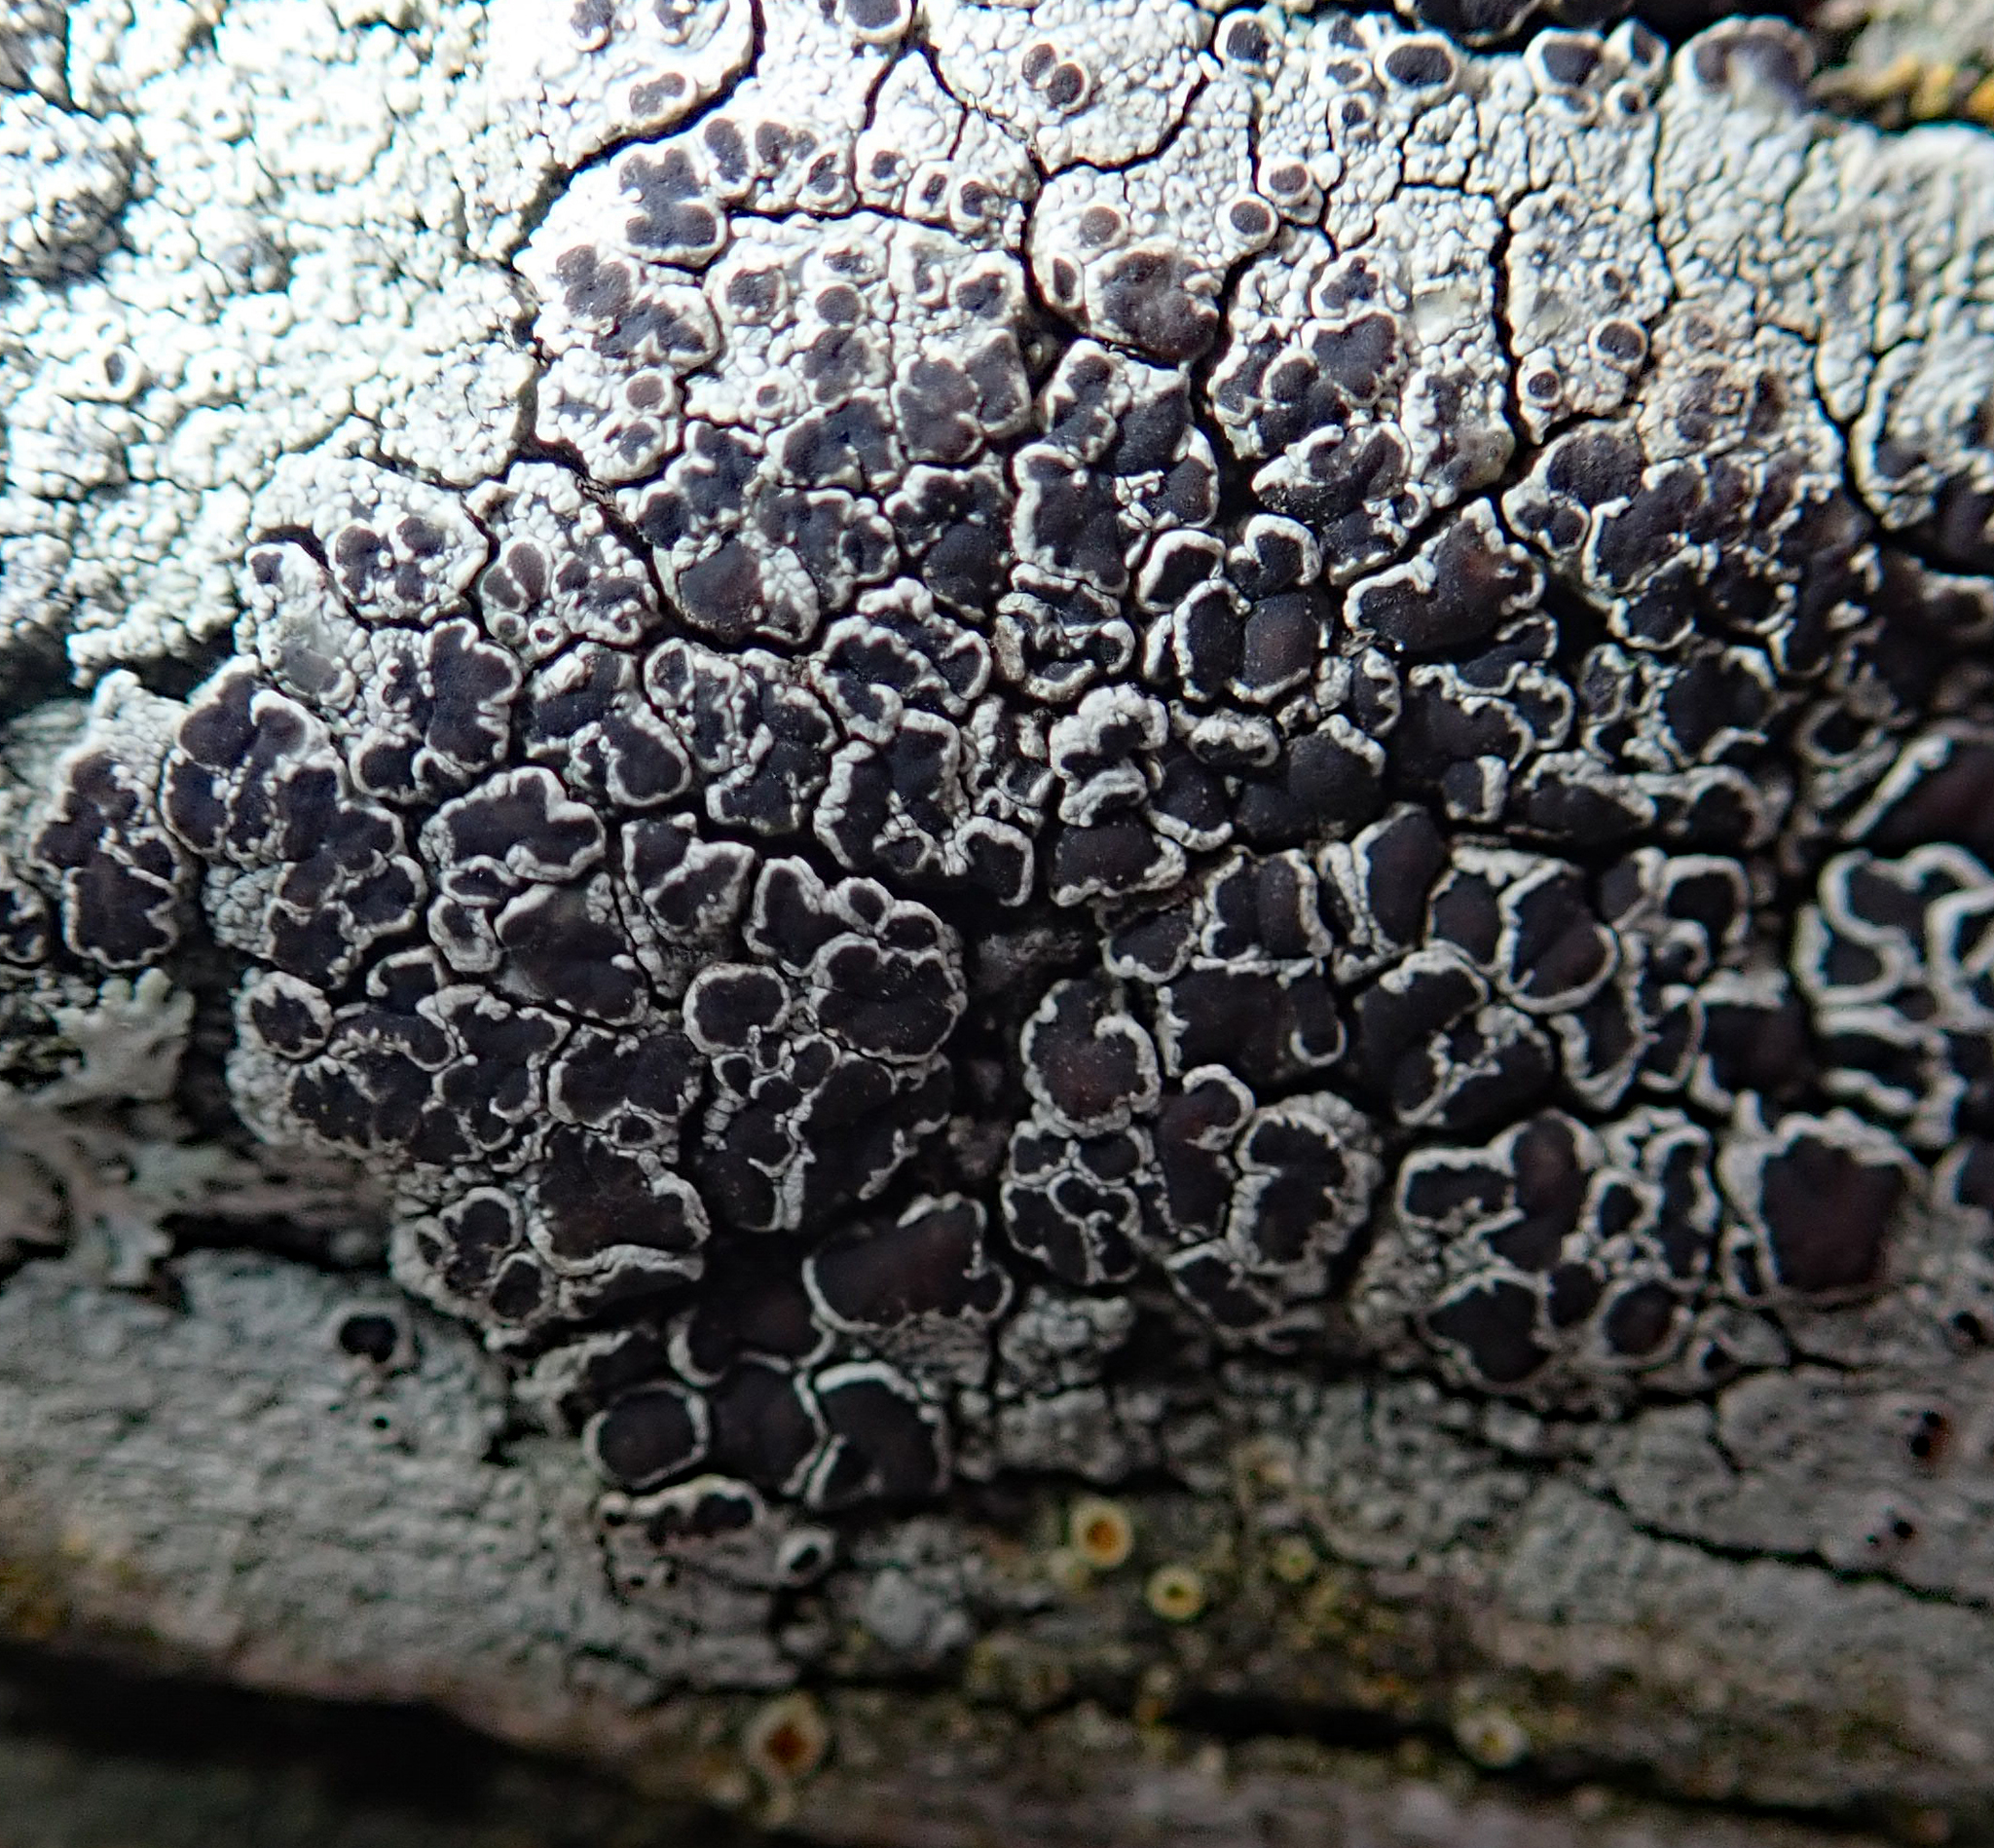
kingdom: Fungi
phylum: Ascomycota
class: Lecanoromycetes
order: Lecanorales
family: Lecanoraceae
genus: Lecanora
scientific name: Lecanora xylophila
